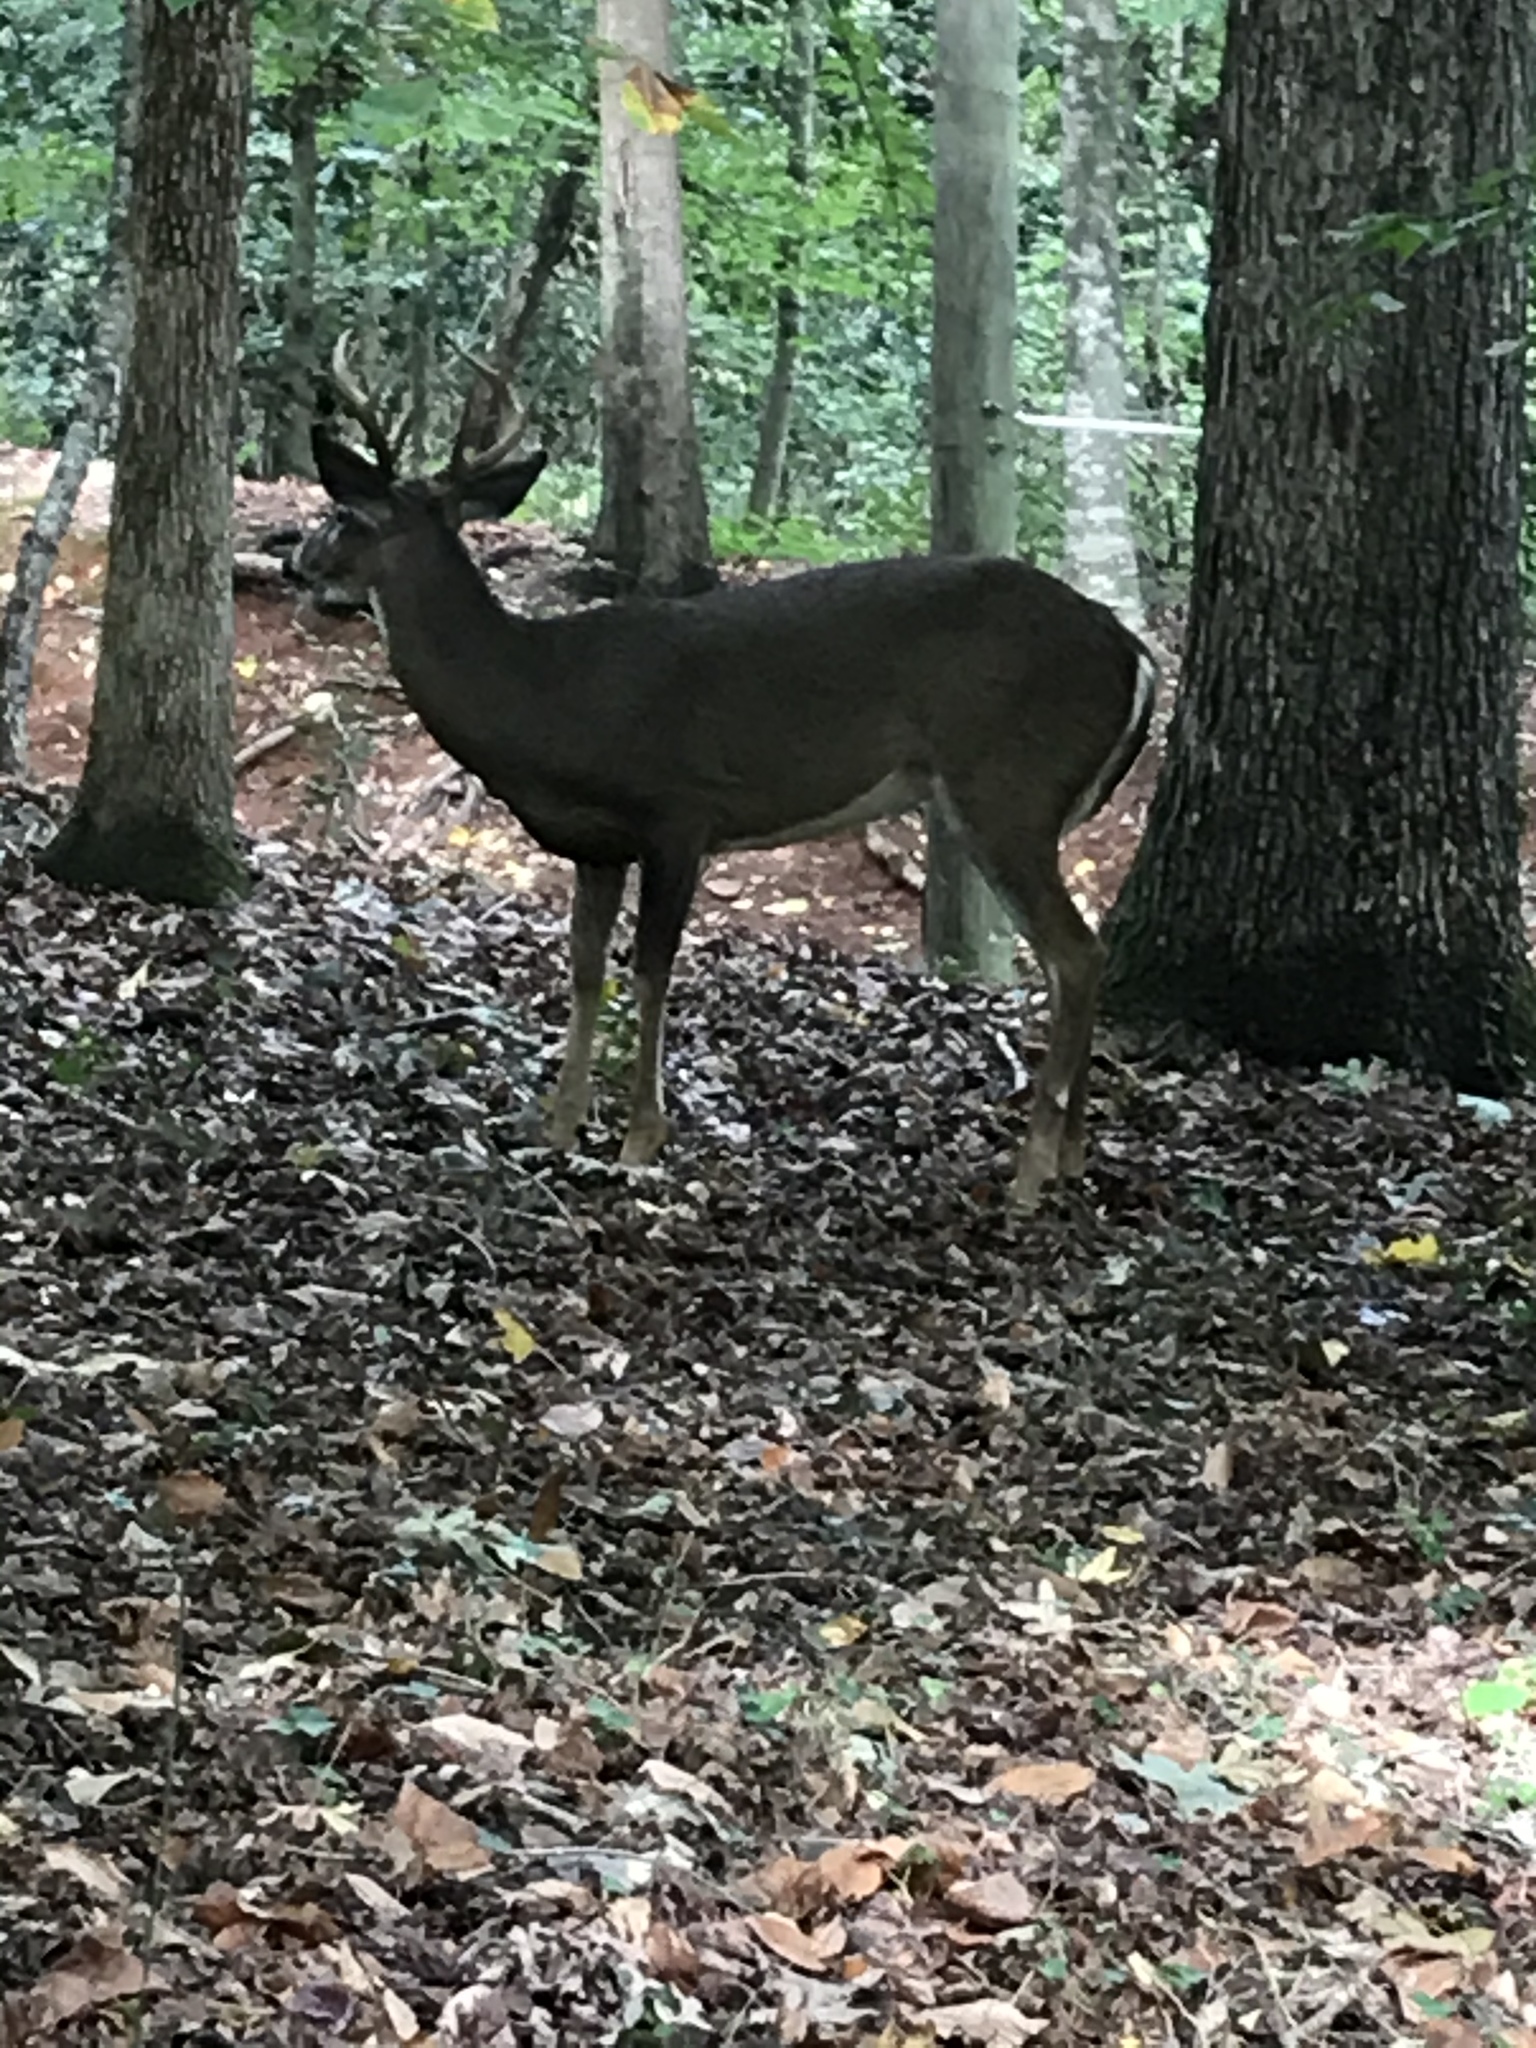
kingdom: Animalia
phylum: Chordata
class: Mammalia
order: Artiodactyla
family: Cervidae
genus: Odocoileus
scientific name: Odocoileus virginianus
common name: White-tailed deer
